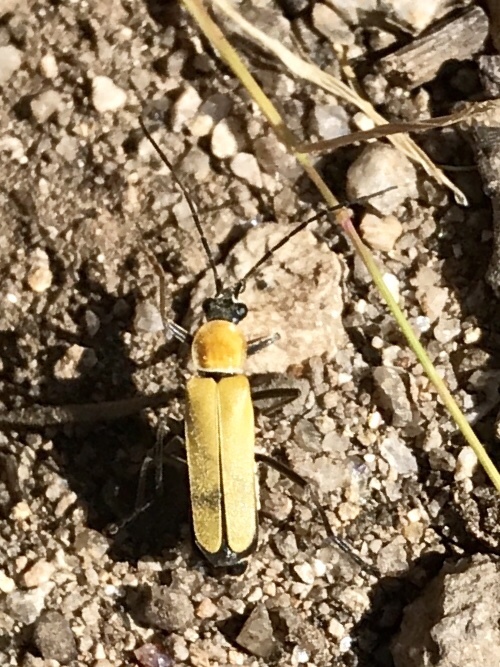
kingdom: Animalia
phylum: Arthropoda
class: Insecta
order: Coleoptera
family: Cantharidae
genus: Chauliognathus
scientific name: Chauliognathus misellus
